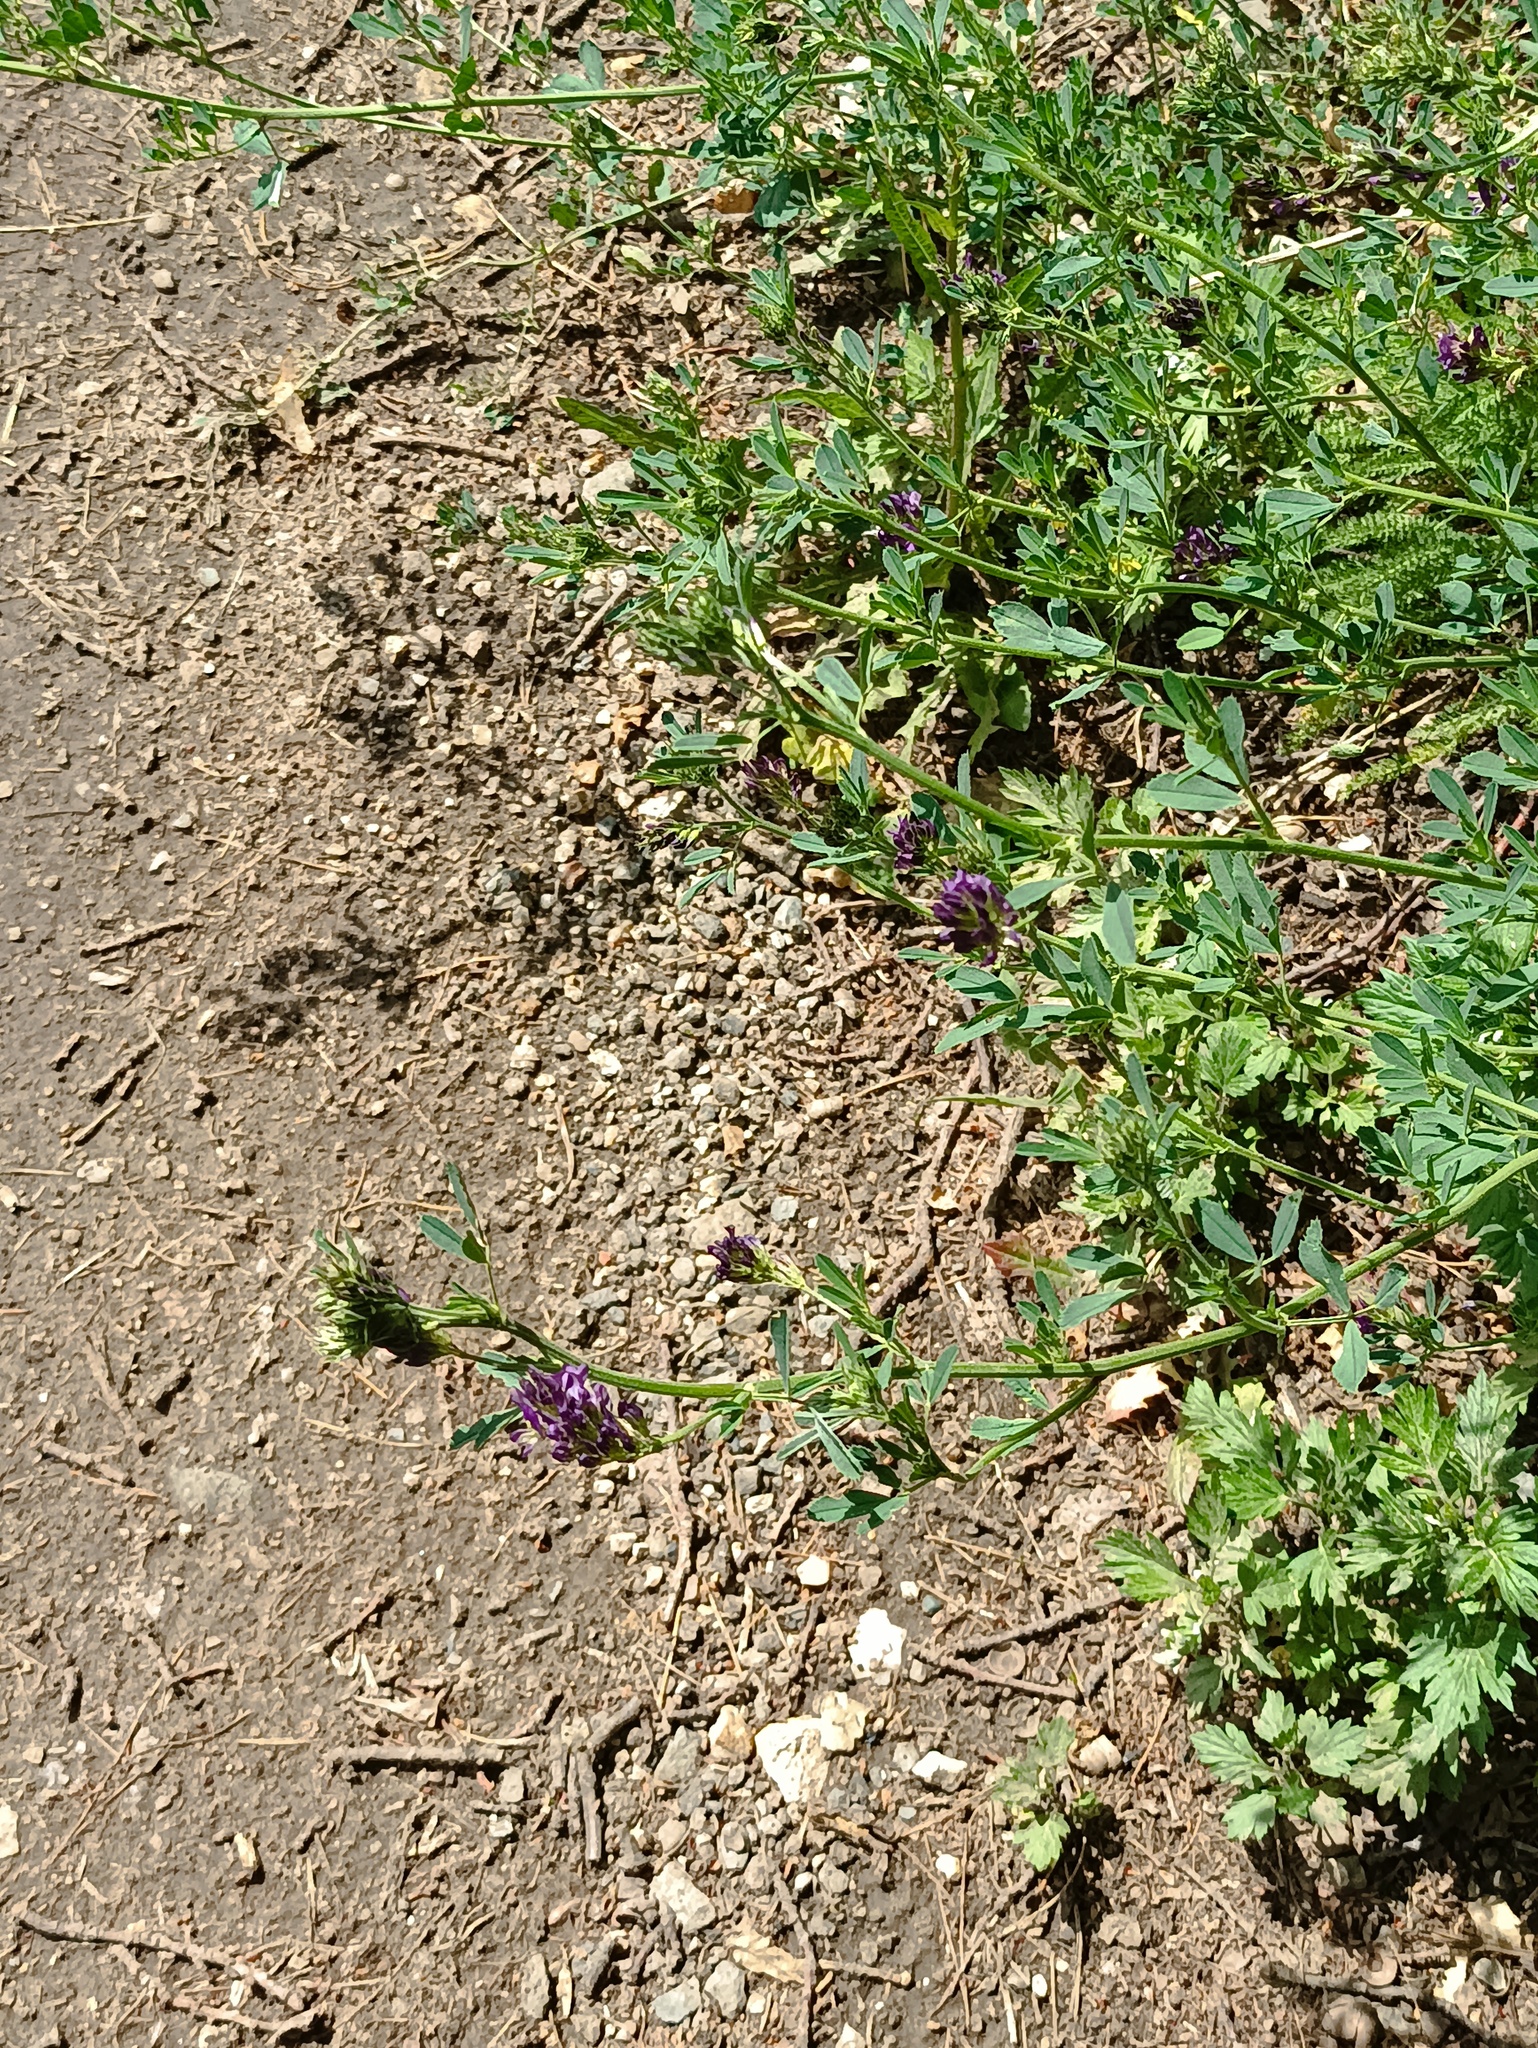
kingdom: Plantae
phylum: Tracheophyta
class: Magnoliopsida
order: Fabales
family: Fabaceae
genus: Medicago
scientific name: Medicago varia
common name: Sand lucerne
